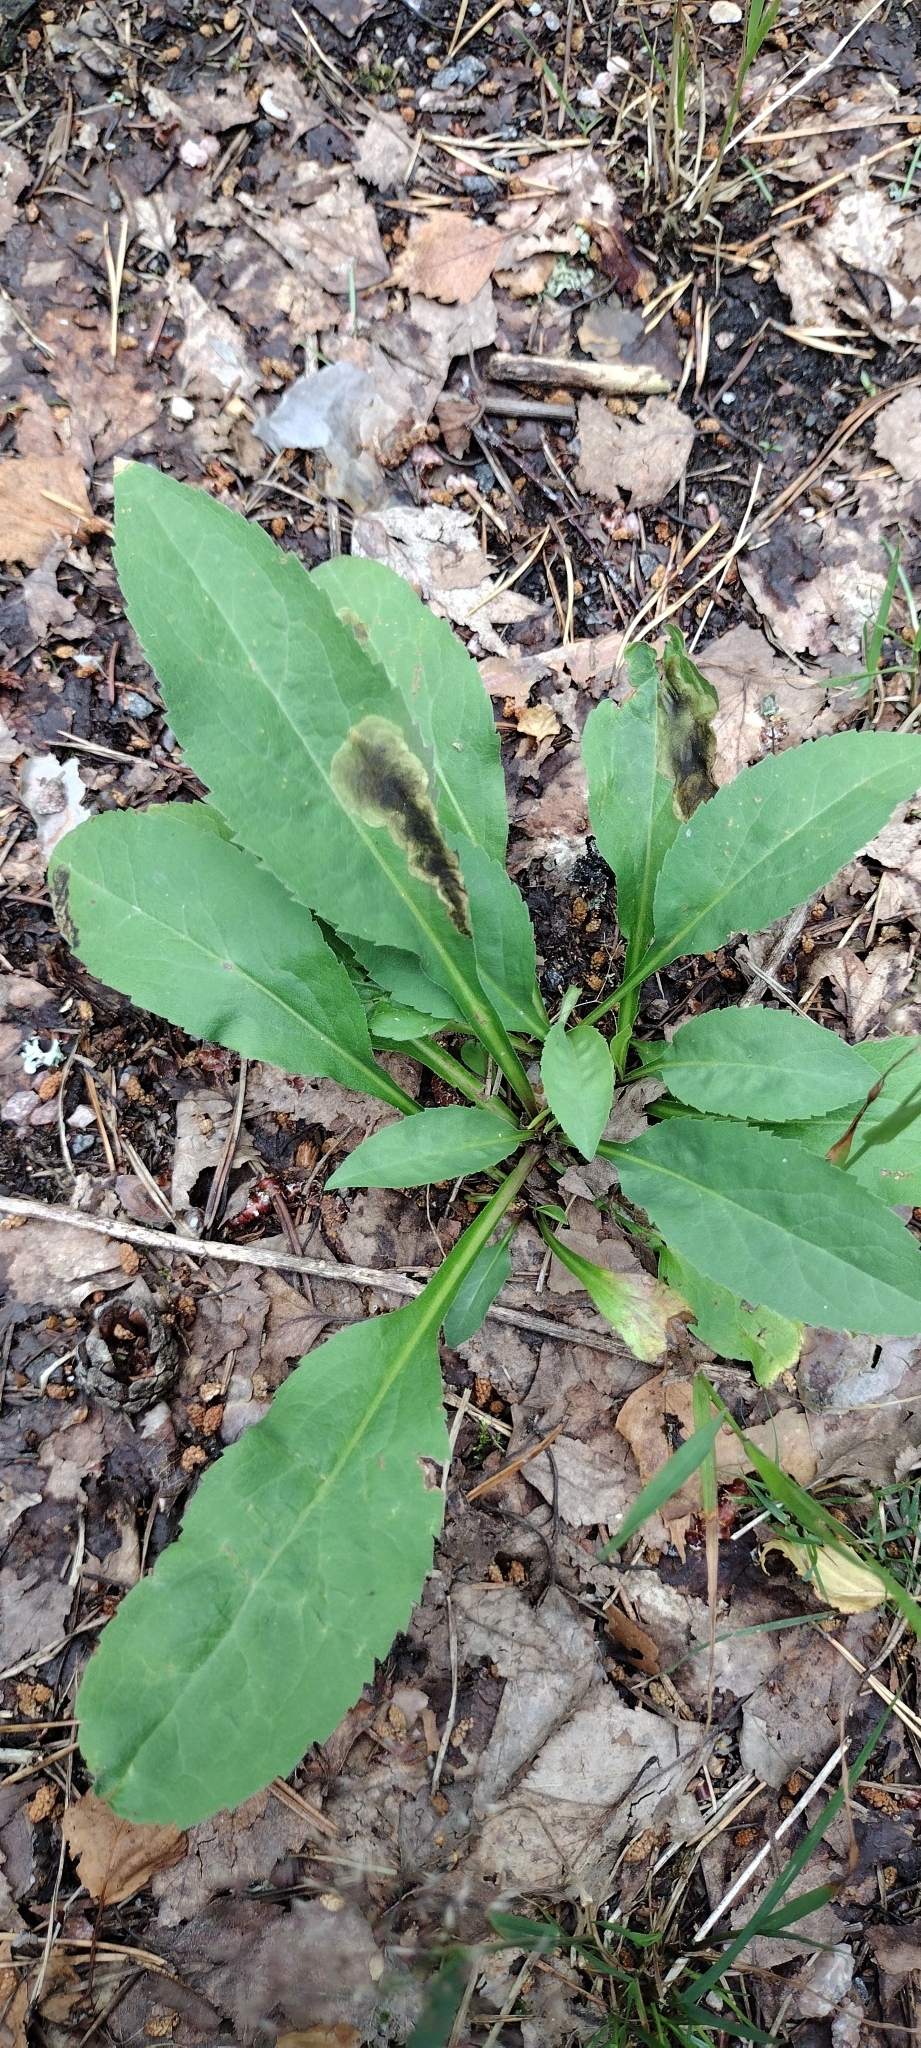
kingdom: Animalia
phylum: Arthropoda
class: Insecta
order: Diptera
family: Agromyzidae
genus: Nemorimyza
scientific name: Nemorimyza posticata
